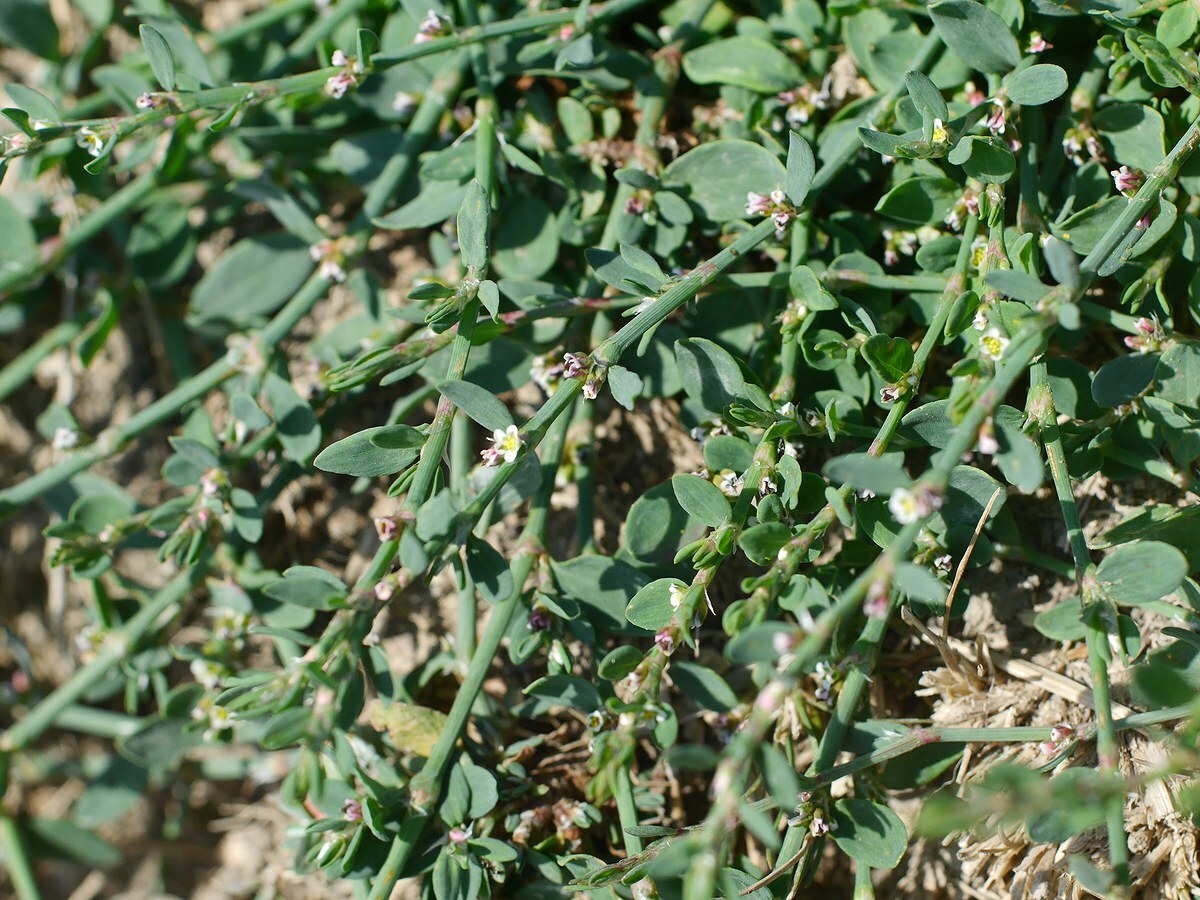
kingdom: Plantae
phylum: Tracheophyta
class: Magnoliopsida
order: Caryophyllales
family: Polygonaceae
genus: Polygonum
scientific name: Polygonum arenastrum
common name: Equal-leaved knotgrass
